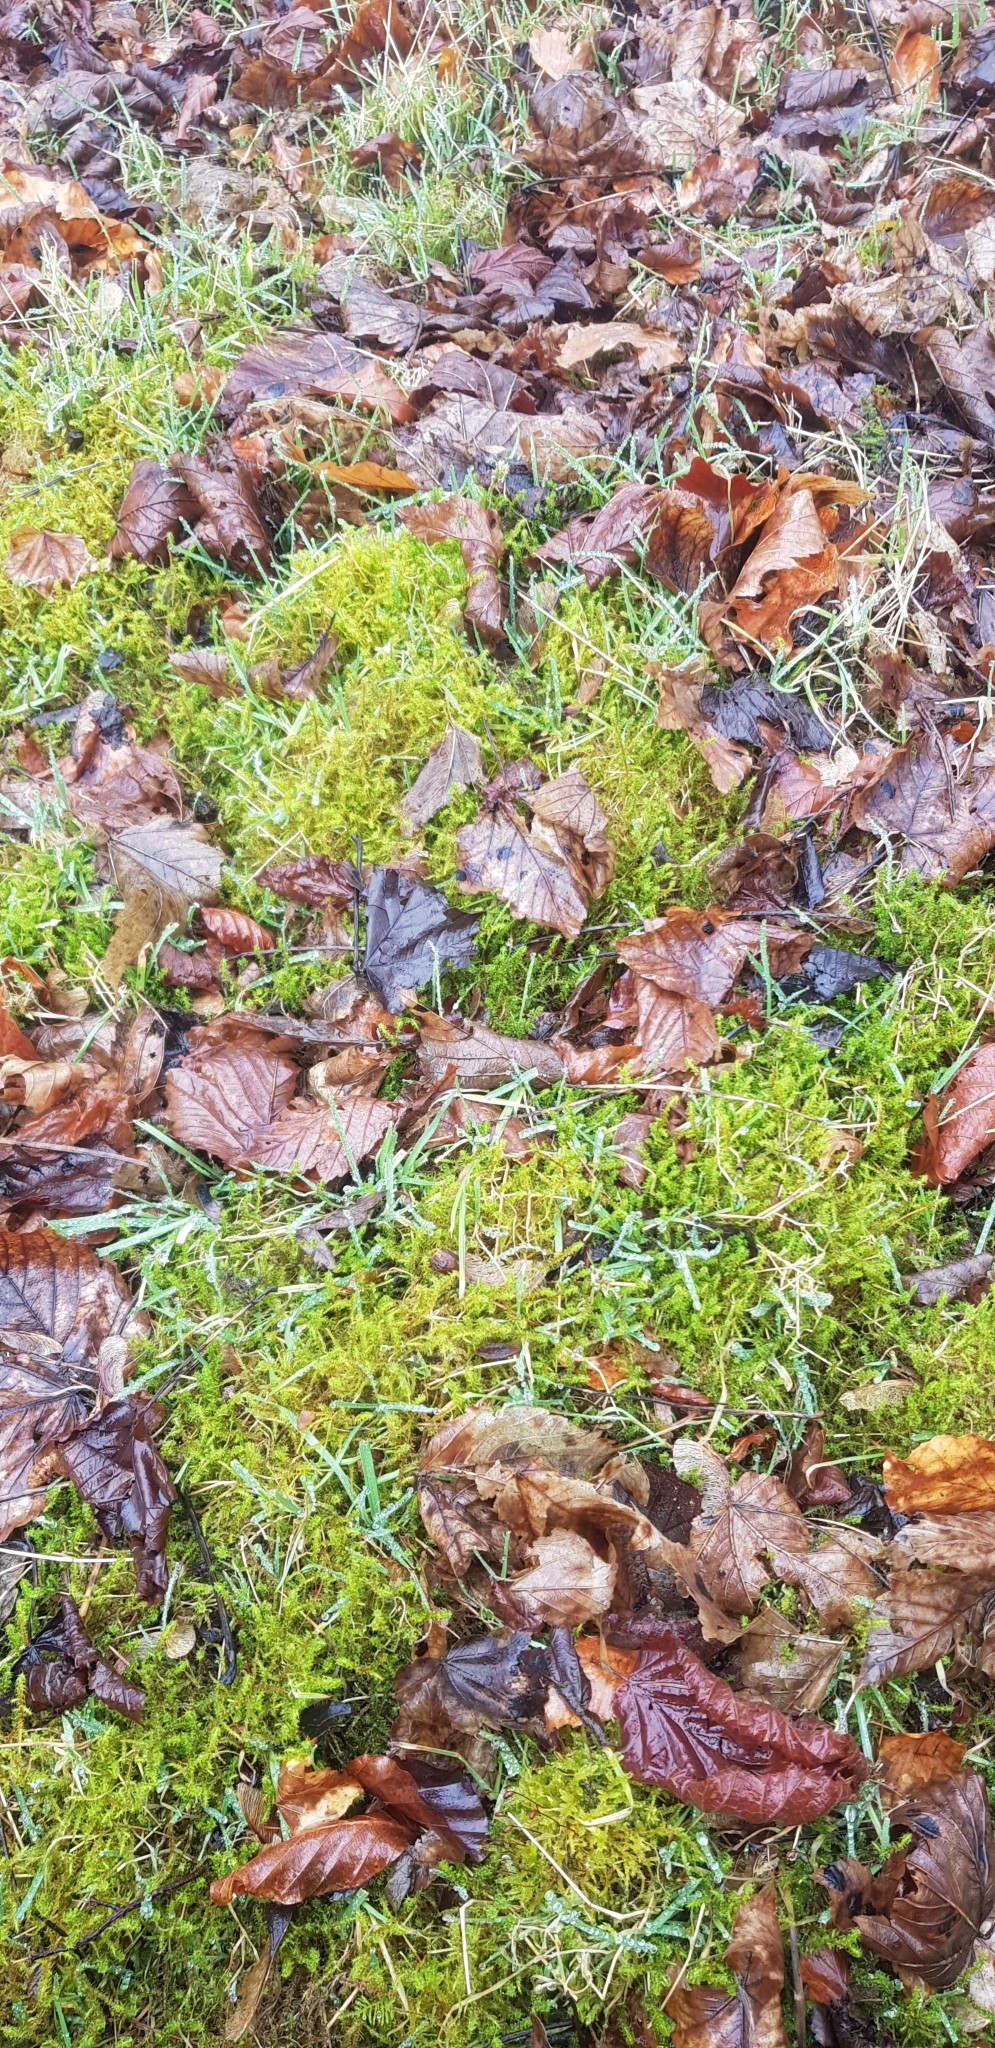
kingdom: Plantae
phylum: Bryophyta
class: Bryopsida
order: Hypnales
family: Hylocomiaceae
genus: Rhytidiadelphus
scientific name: Rhytidiadelphus squarrosus
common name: Springy turf-moss
